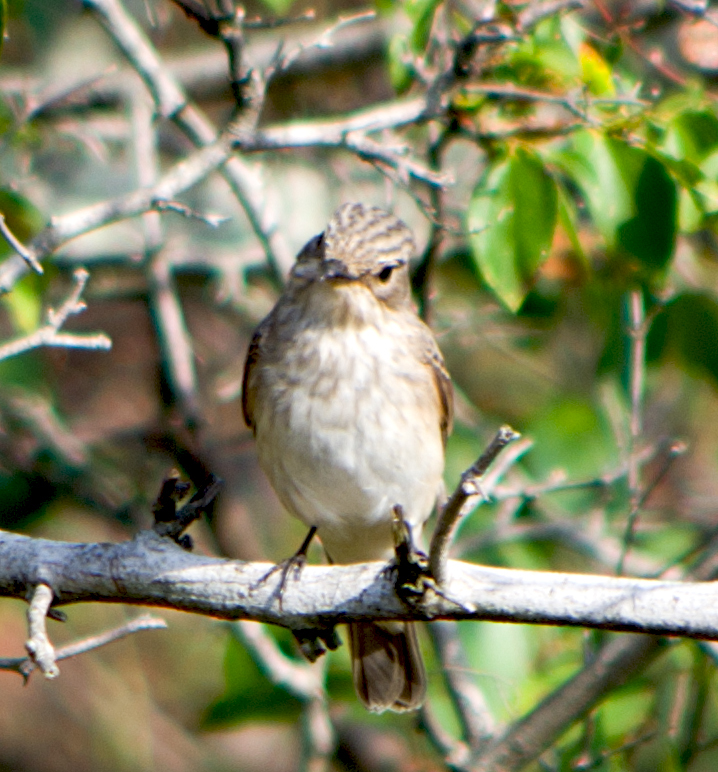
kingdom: Animalia
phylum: Chordata
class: Aves
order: Passeriformes
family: Muscicapidae
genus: Muscicapa
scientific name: Muscicapa striata
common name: Spotted flycatcher
